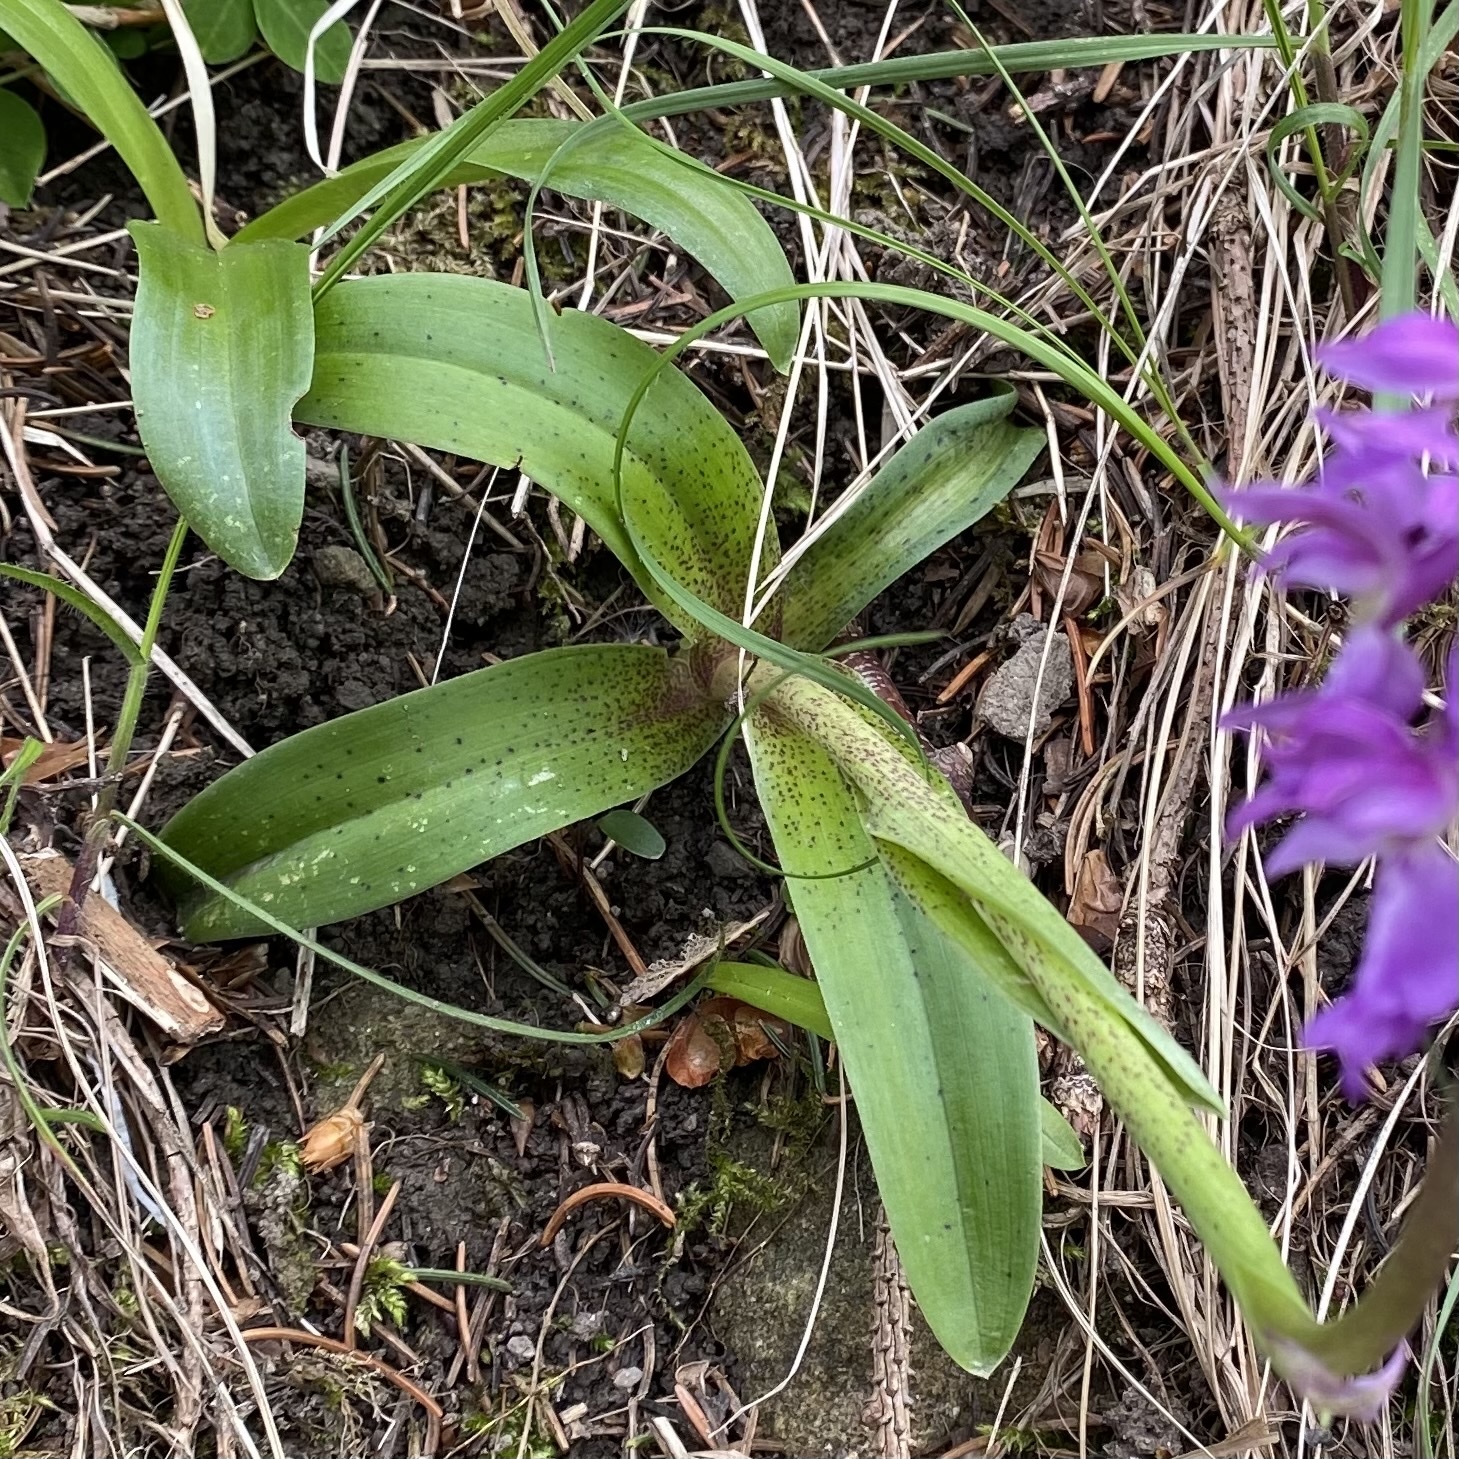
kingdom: Plantae
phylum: Tracheophyta
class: Liliopsida
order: Asparagales
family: Orchidaceae
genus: Orchis
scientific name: Orchis mascula
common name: Early-purple orchid
